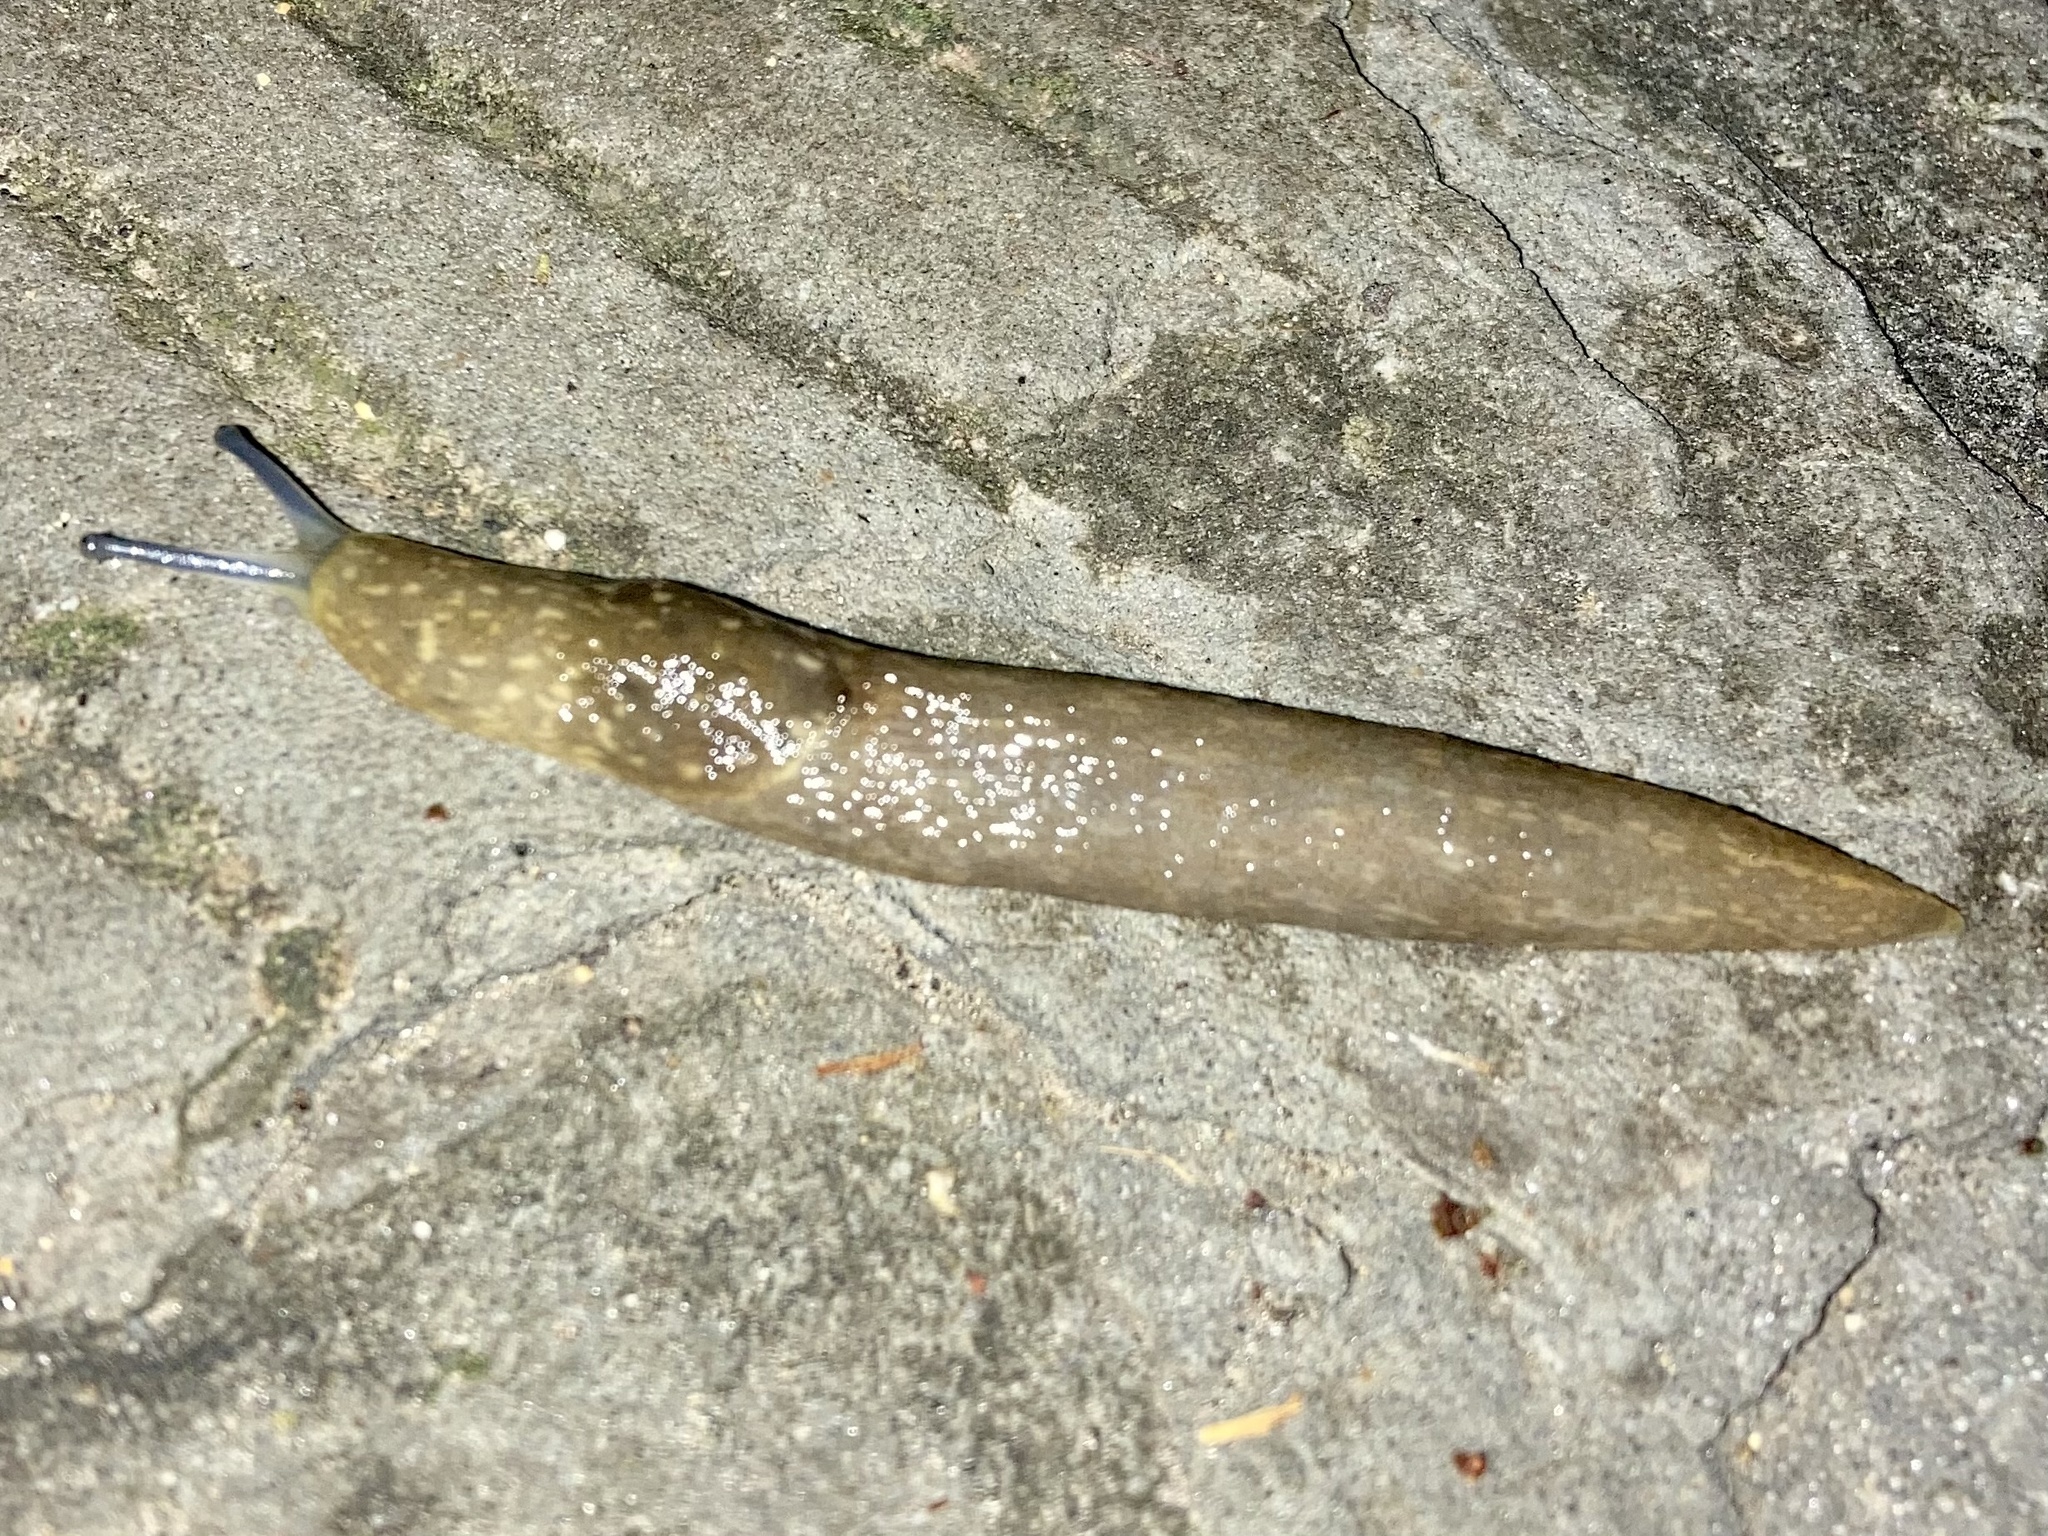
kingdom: Animalia
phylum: Mollusca
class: Gastropoda
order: Stylommatophora
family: Limacidae
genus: Limacus
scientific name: Limacus flavus
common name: Yellow gardenslug
